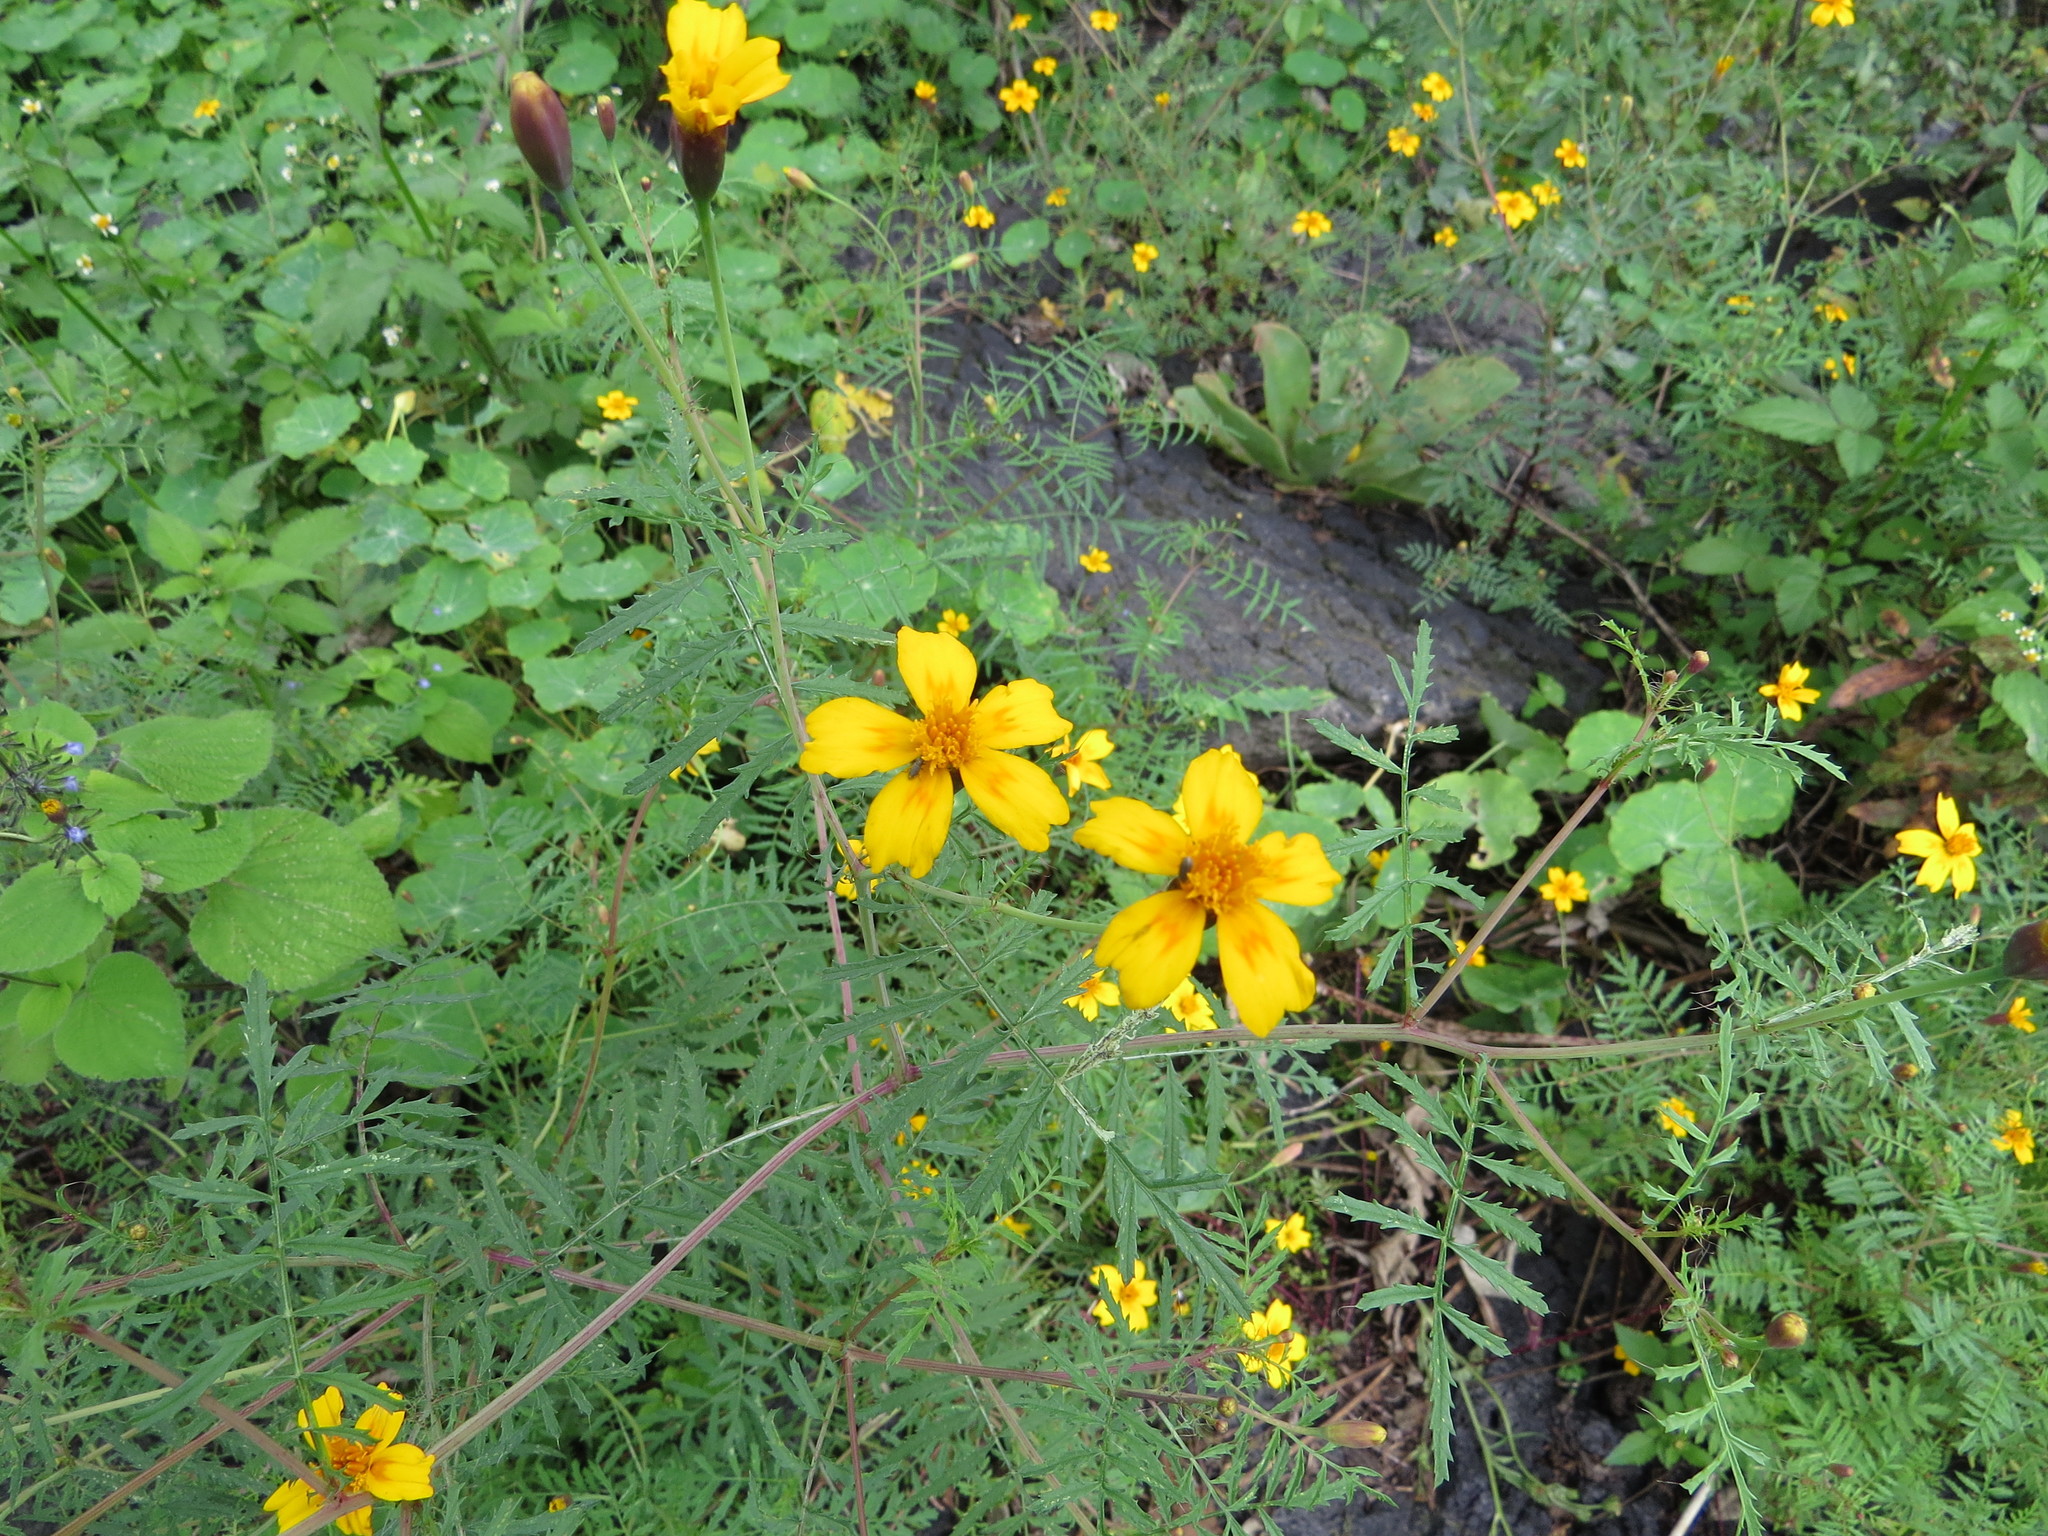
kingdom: Plantae
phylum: Tracheophyta
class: Magnoliopsida
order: Asterales
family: Asteraceae
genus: Tagetes
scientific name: Tagetes lunulata
